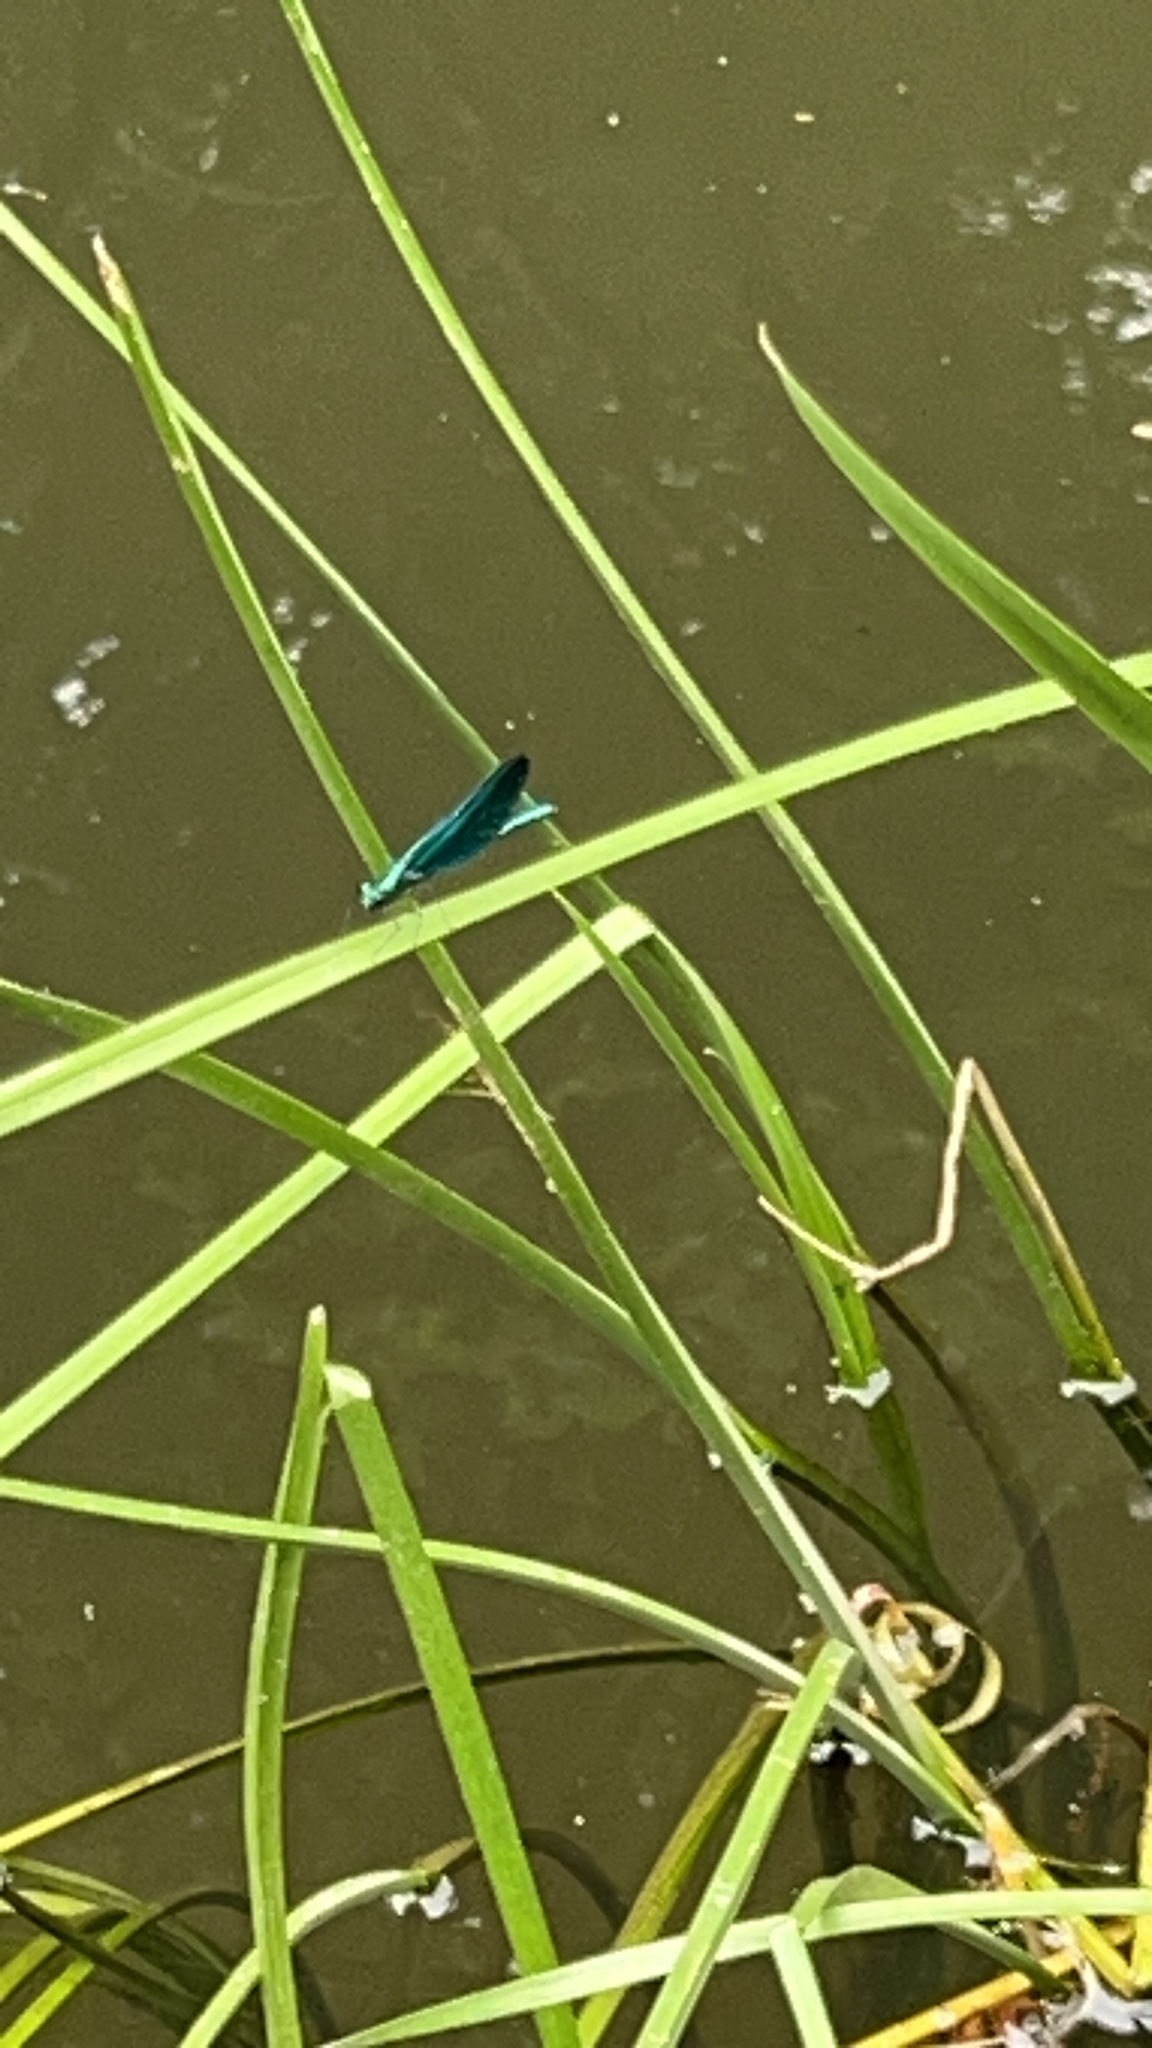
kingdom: Animalia
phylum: Arthropoda
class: Insecta
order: Odonata
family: Calopterygidae
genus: Calopteryx
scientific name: Calopteryx virgo
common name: Beautiful demoiselle
